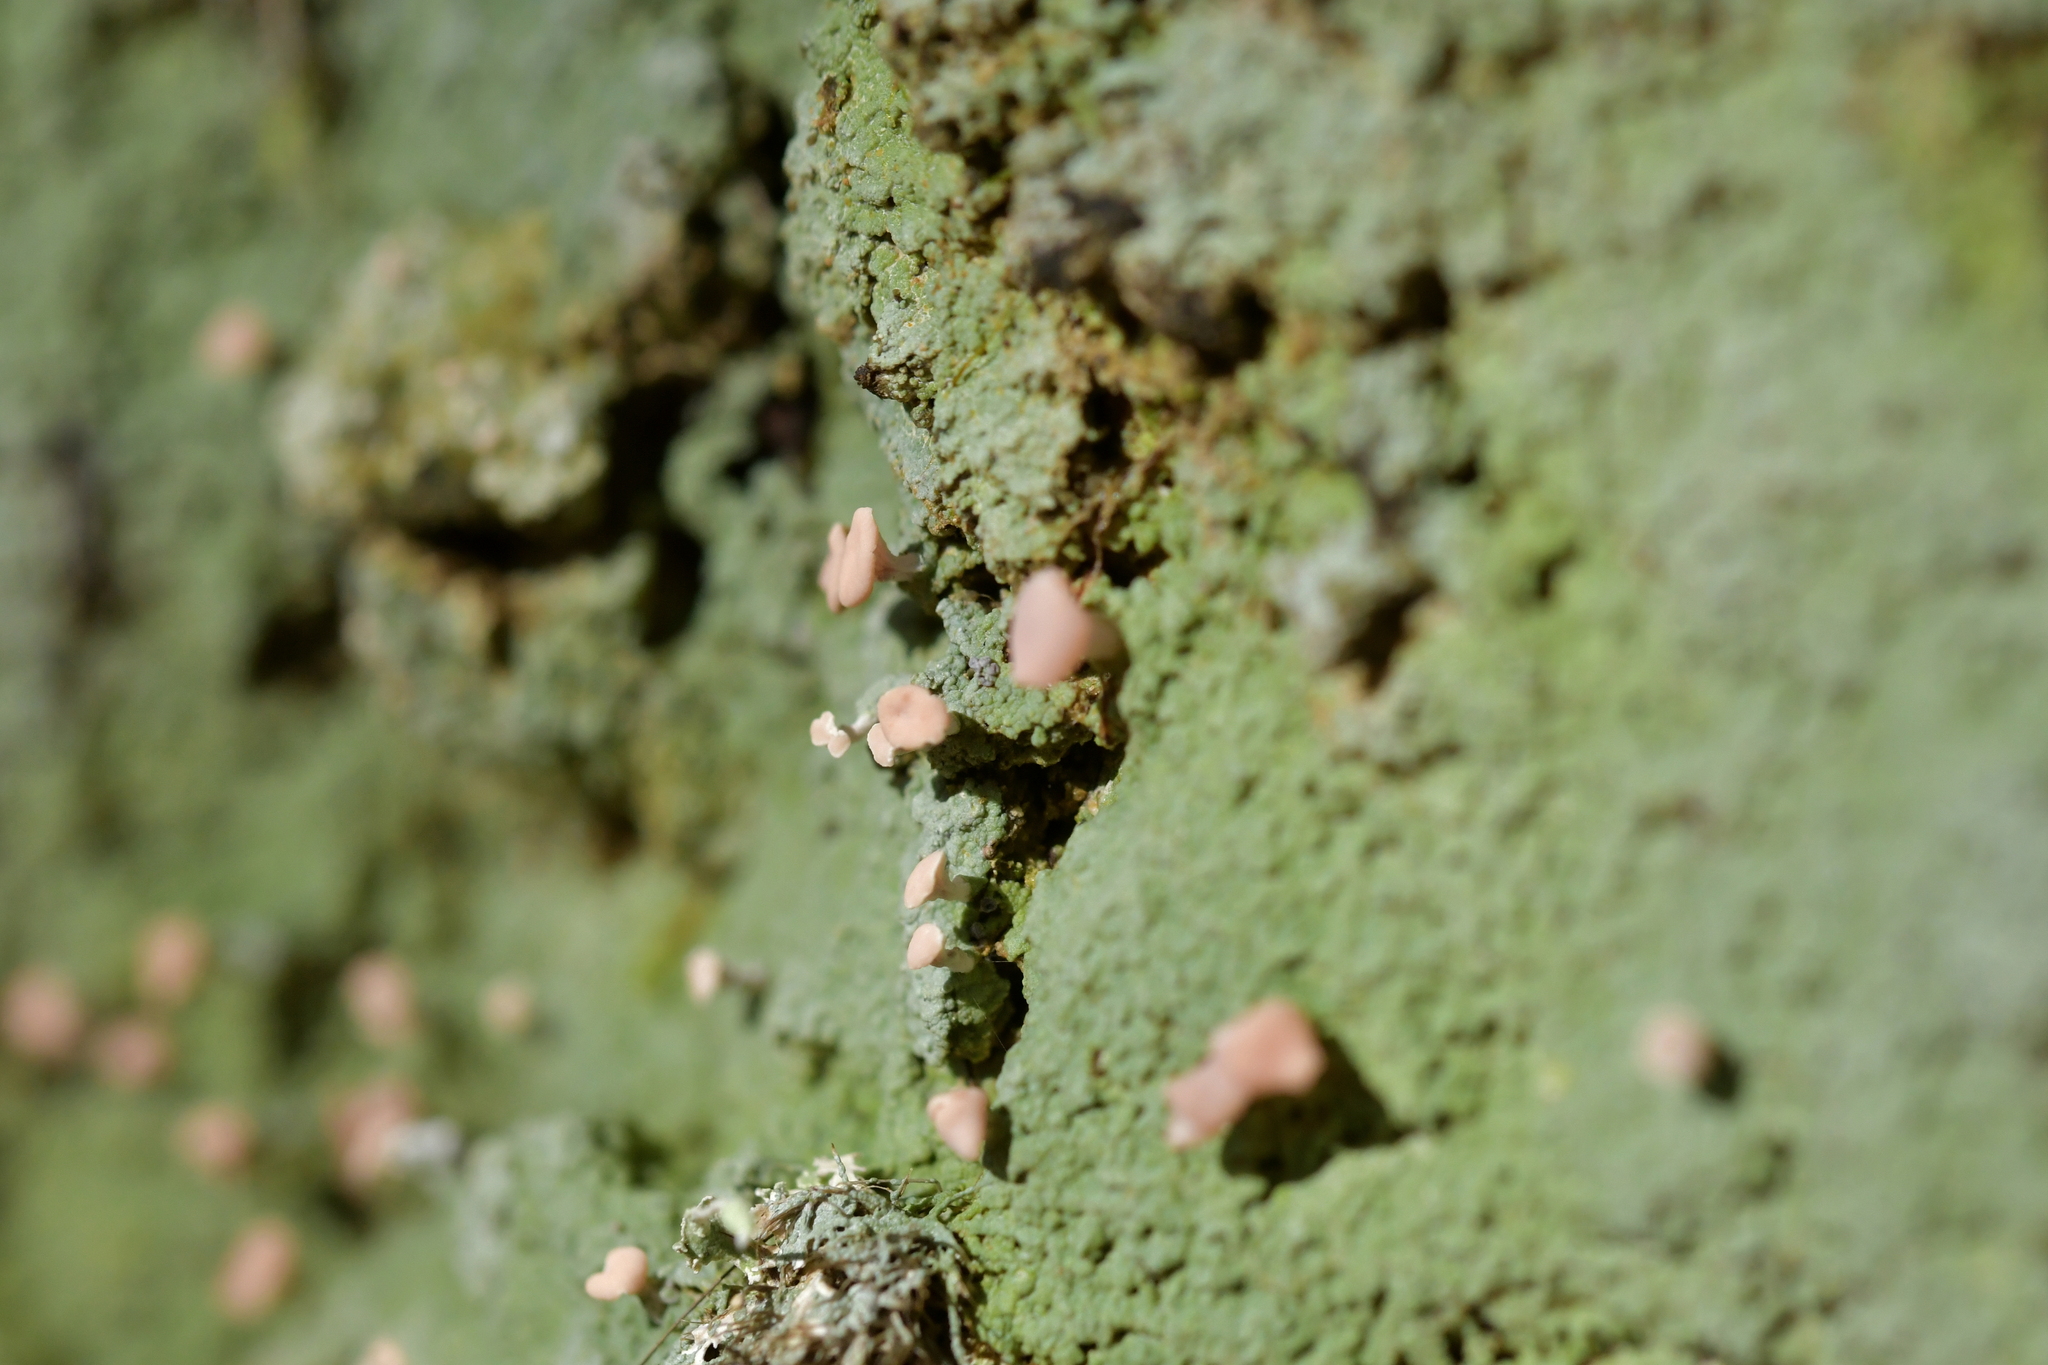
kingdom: Fungi
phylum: Ascomycota
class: Lecanoromycetes
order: Baeomycetales
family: Baeomycetaceae
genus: Baeomyces
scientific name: Baeomyces heteromorphus
